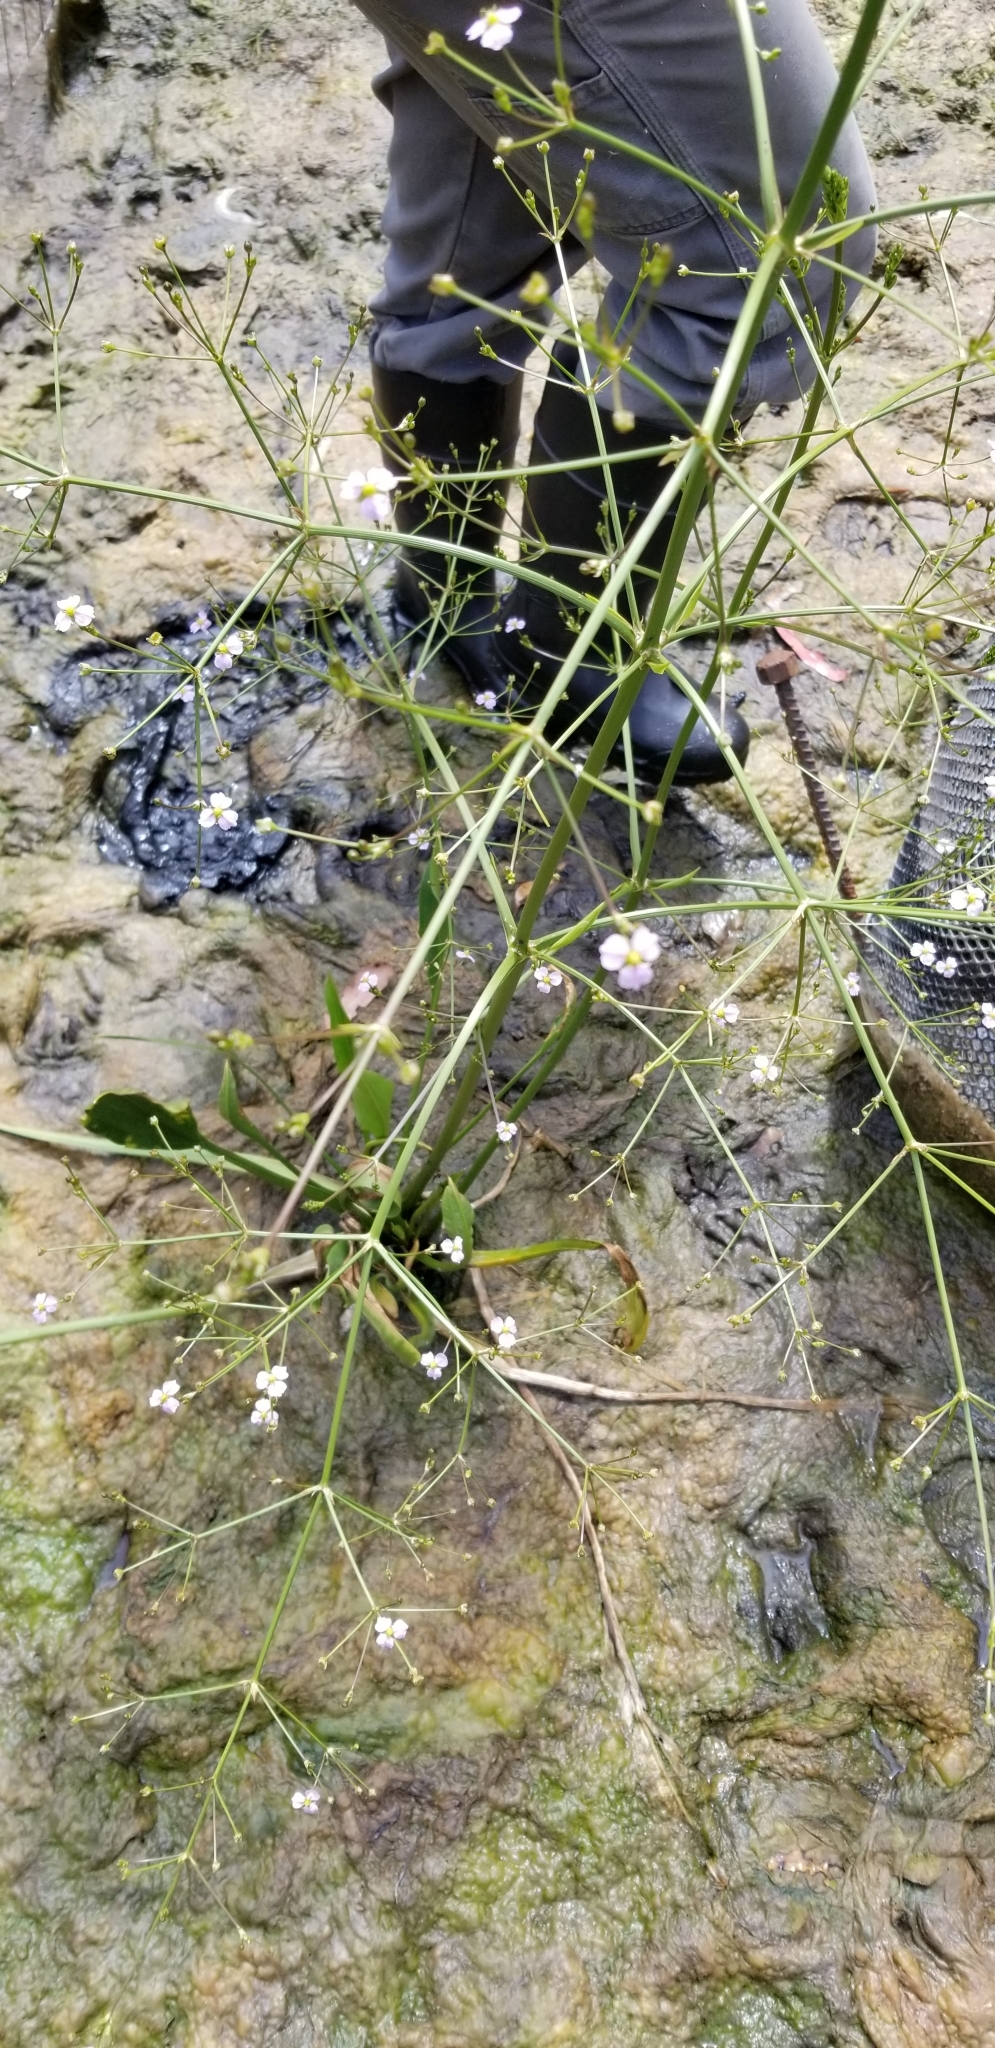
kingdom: Plantae
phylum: Tracheophyta
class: Liliopsida
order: Alismatales
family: Alismataceae
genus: Alisma
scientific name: Alisma lanceolatum
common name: Narrow-leaved water-plantain
